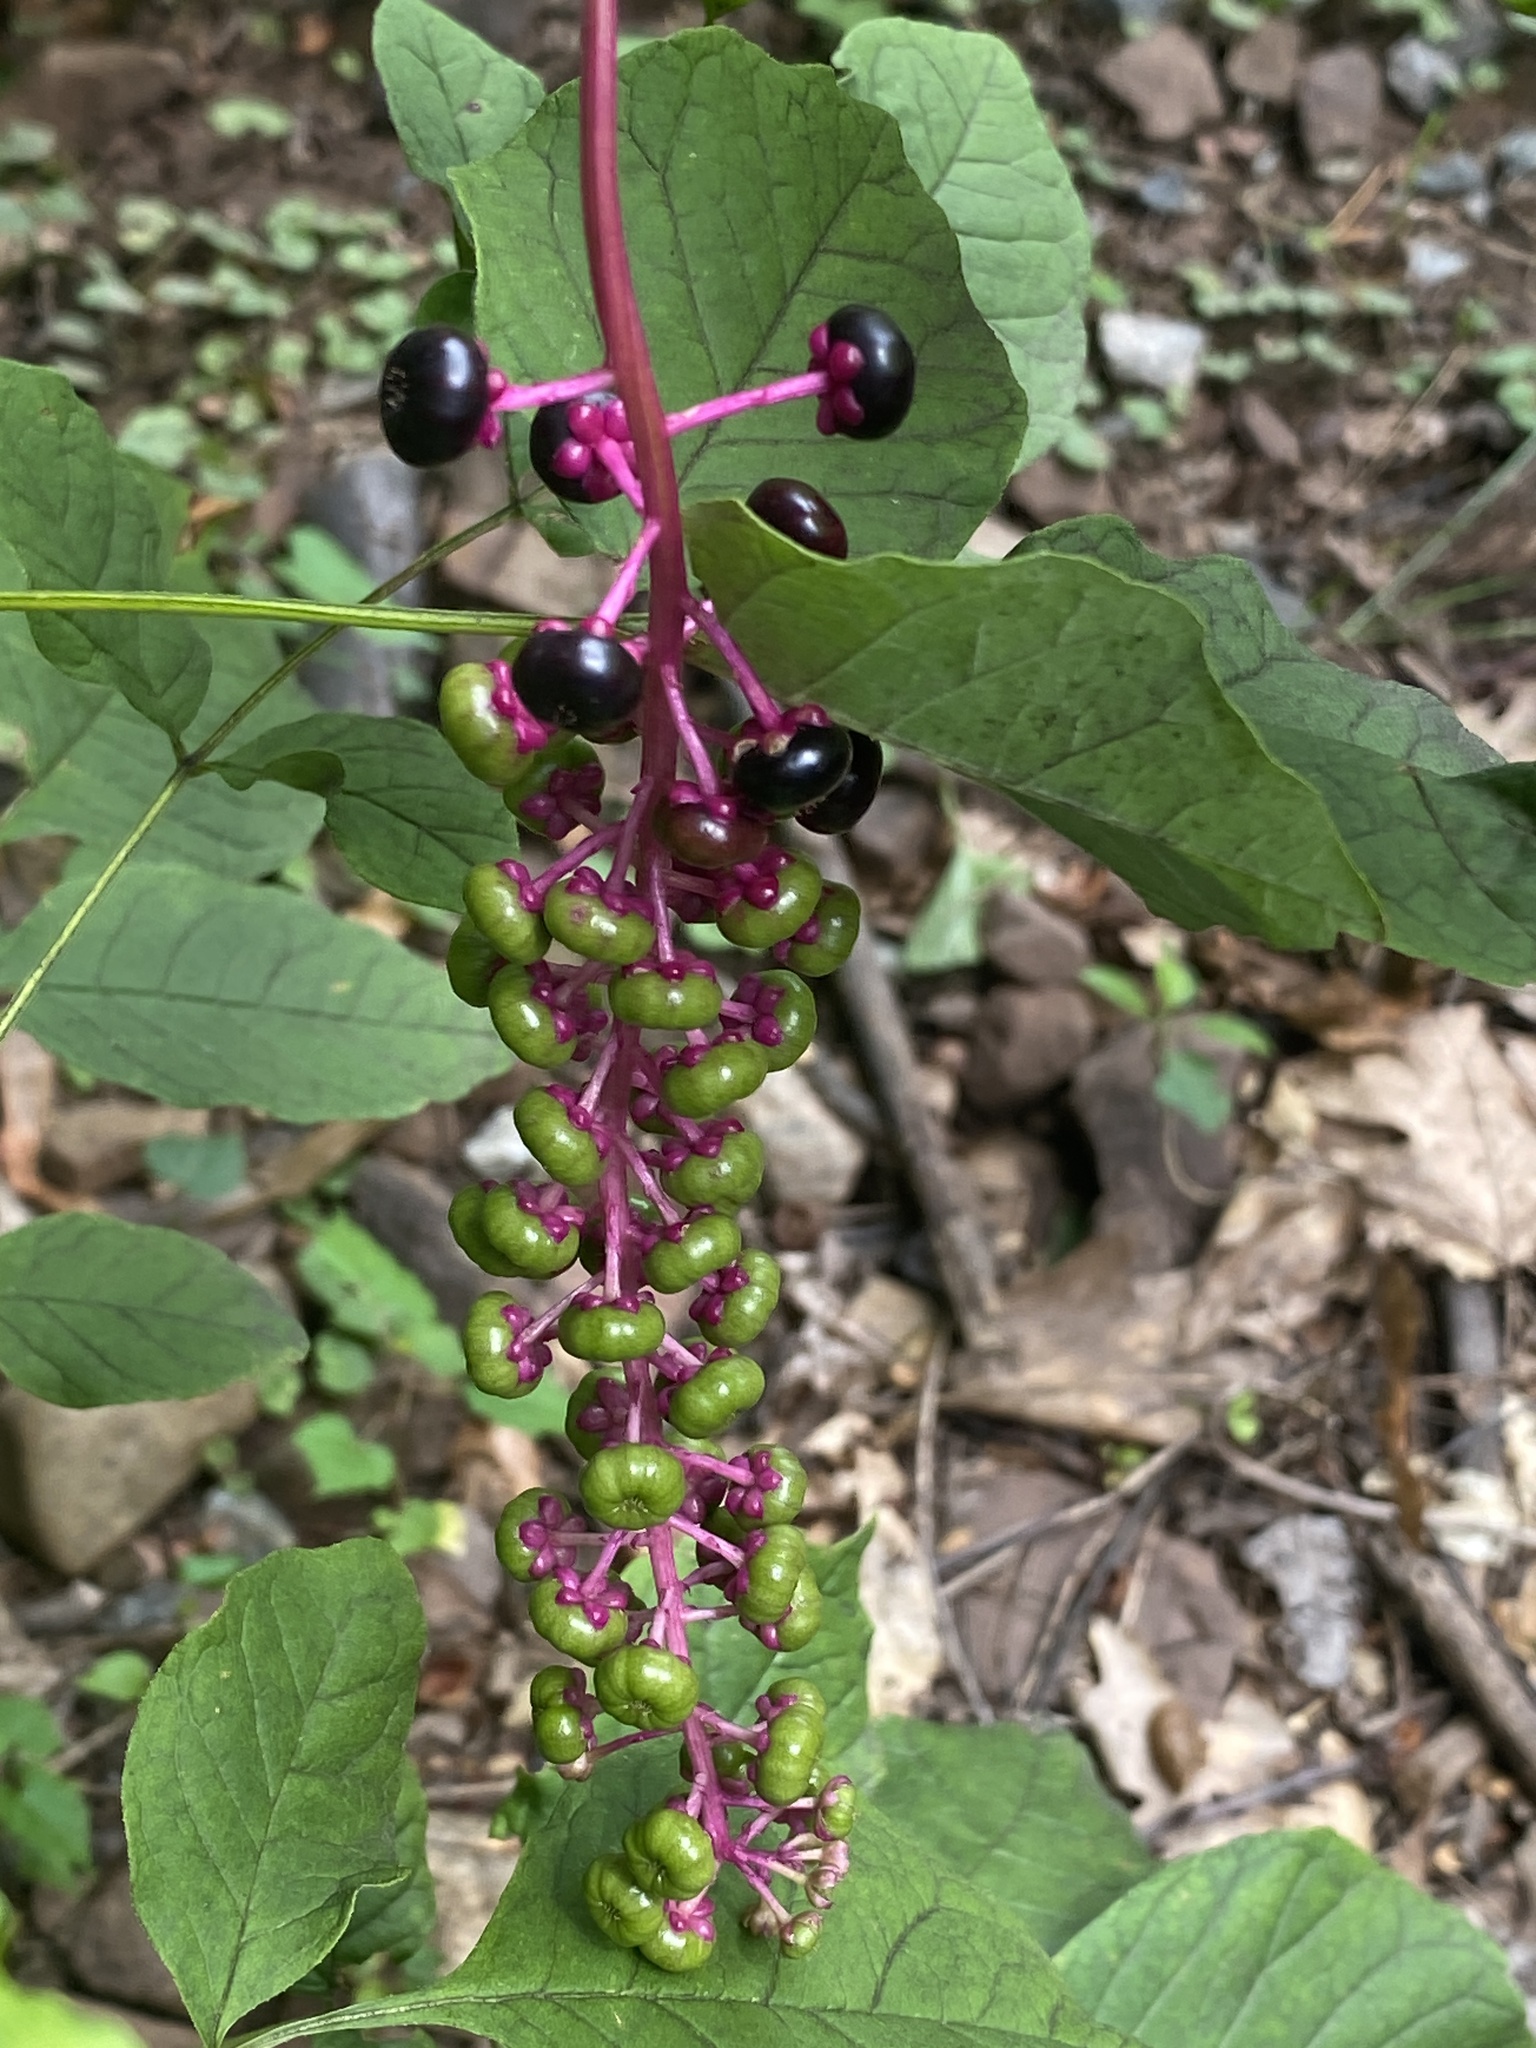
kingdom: Plantae
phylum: Tracheophyta
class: Magnoliopsida
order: Caryophyllales
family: Phytolaccaceae
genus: Phytolacca
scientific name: Phytolacca americana
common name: American pokeweed
